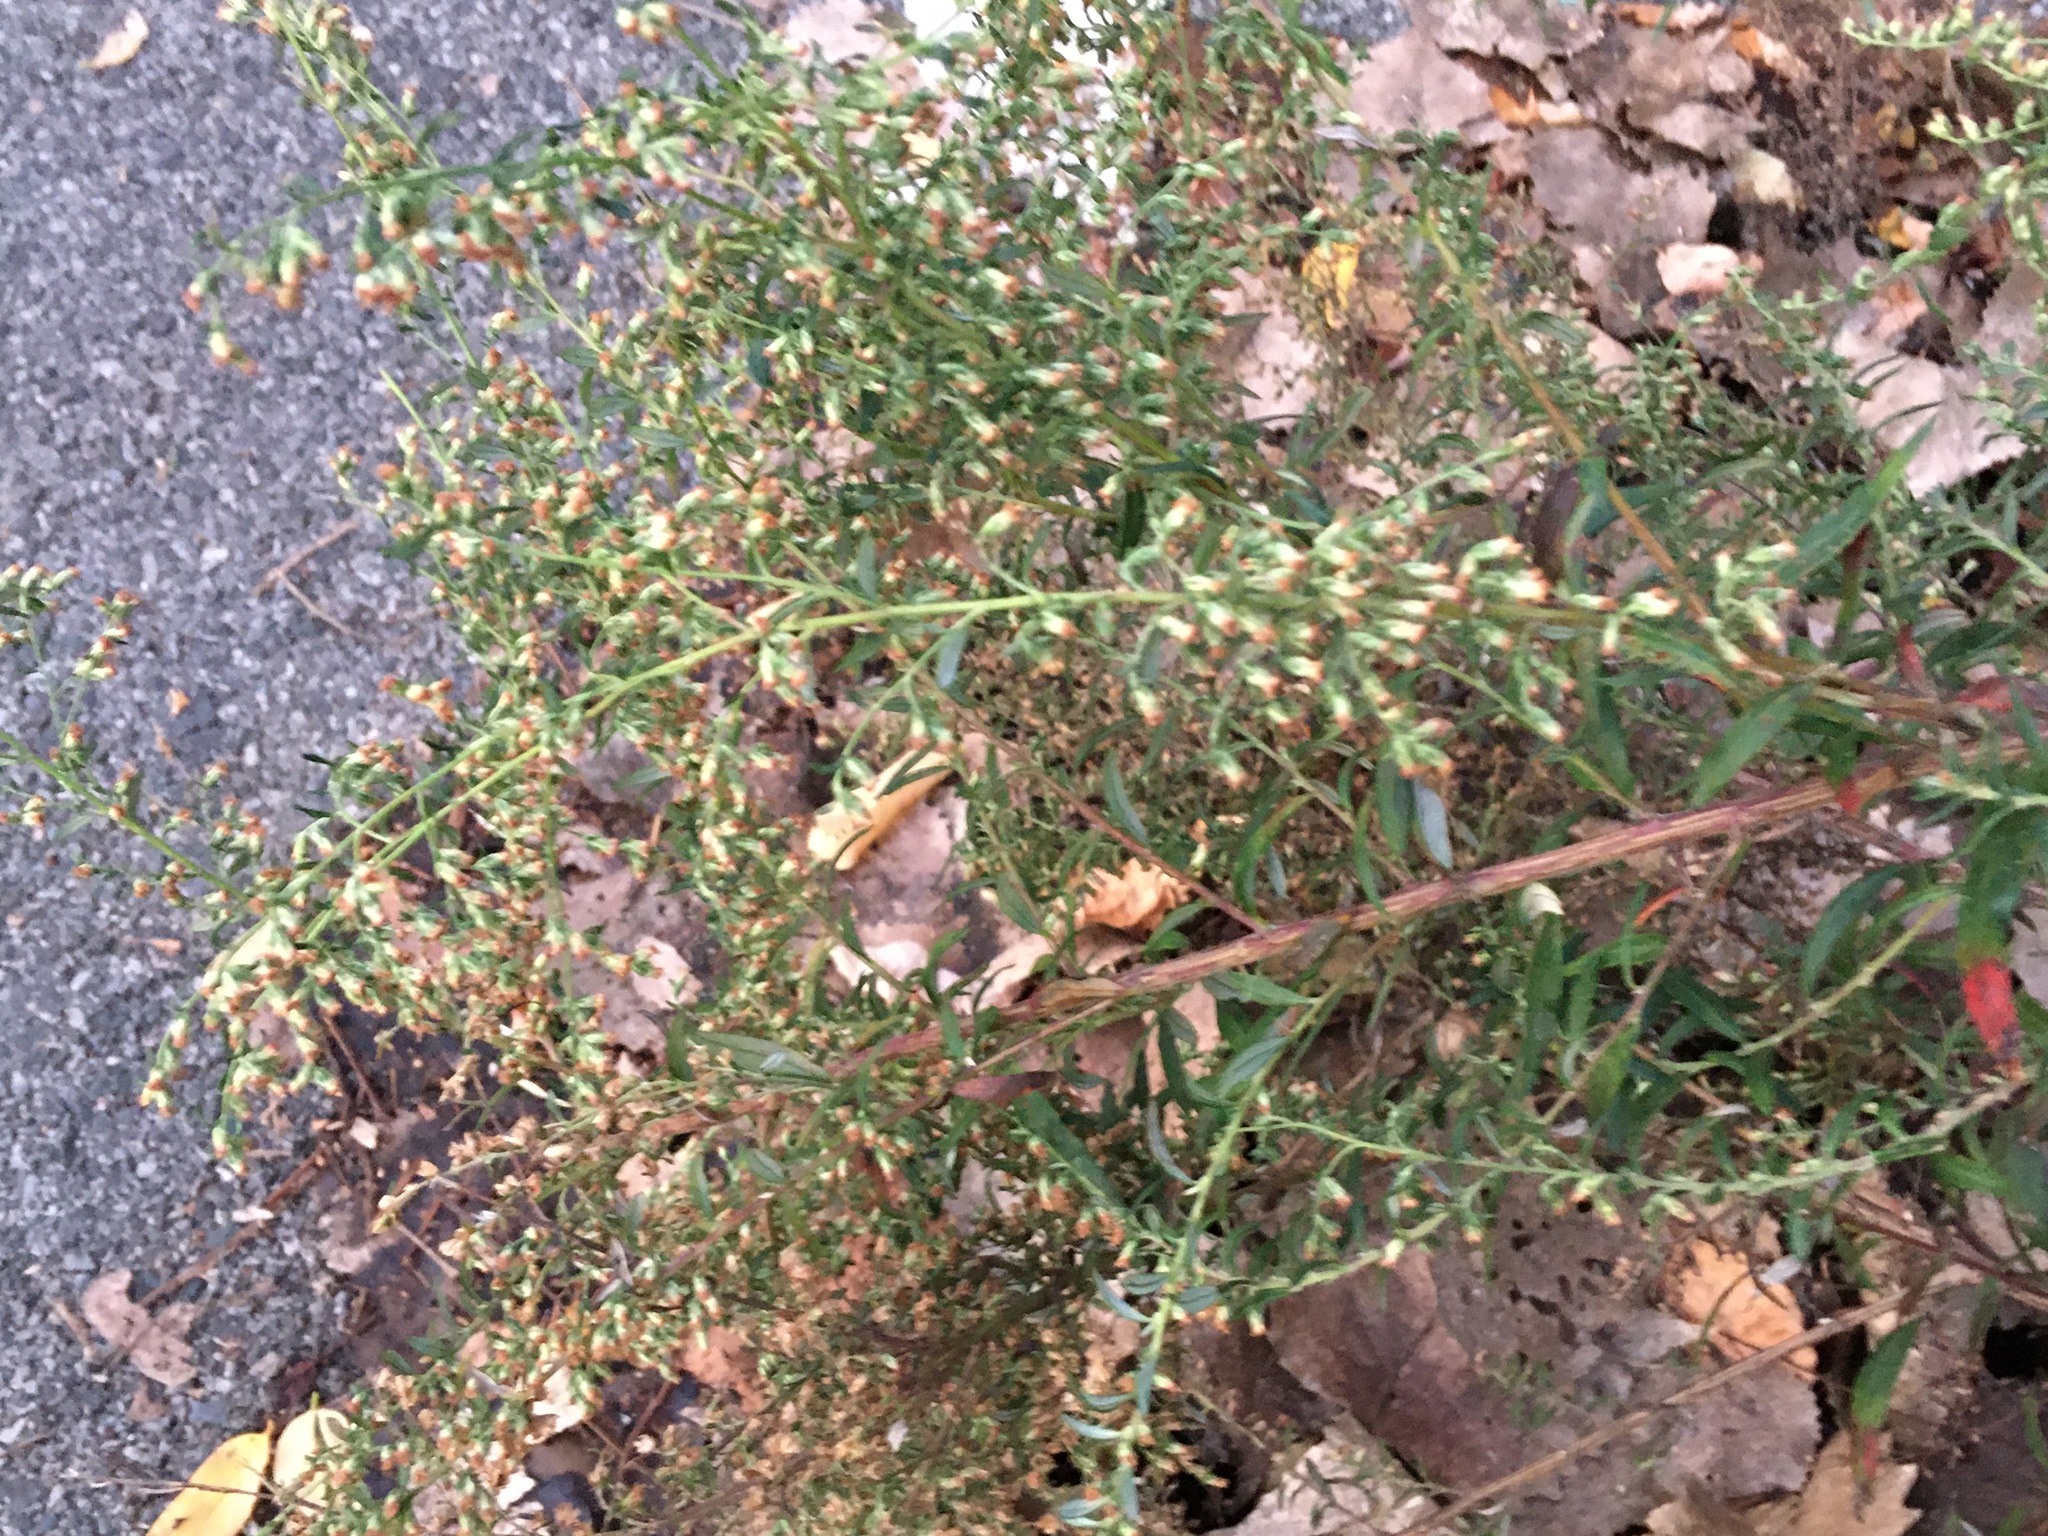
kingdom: Plantae
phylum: Tracheophyta
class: Magnoliopsida
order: Asterales
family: Asteraceae
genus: Artemisia
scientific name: Artemisia vulgaris
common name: Mugwort
